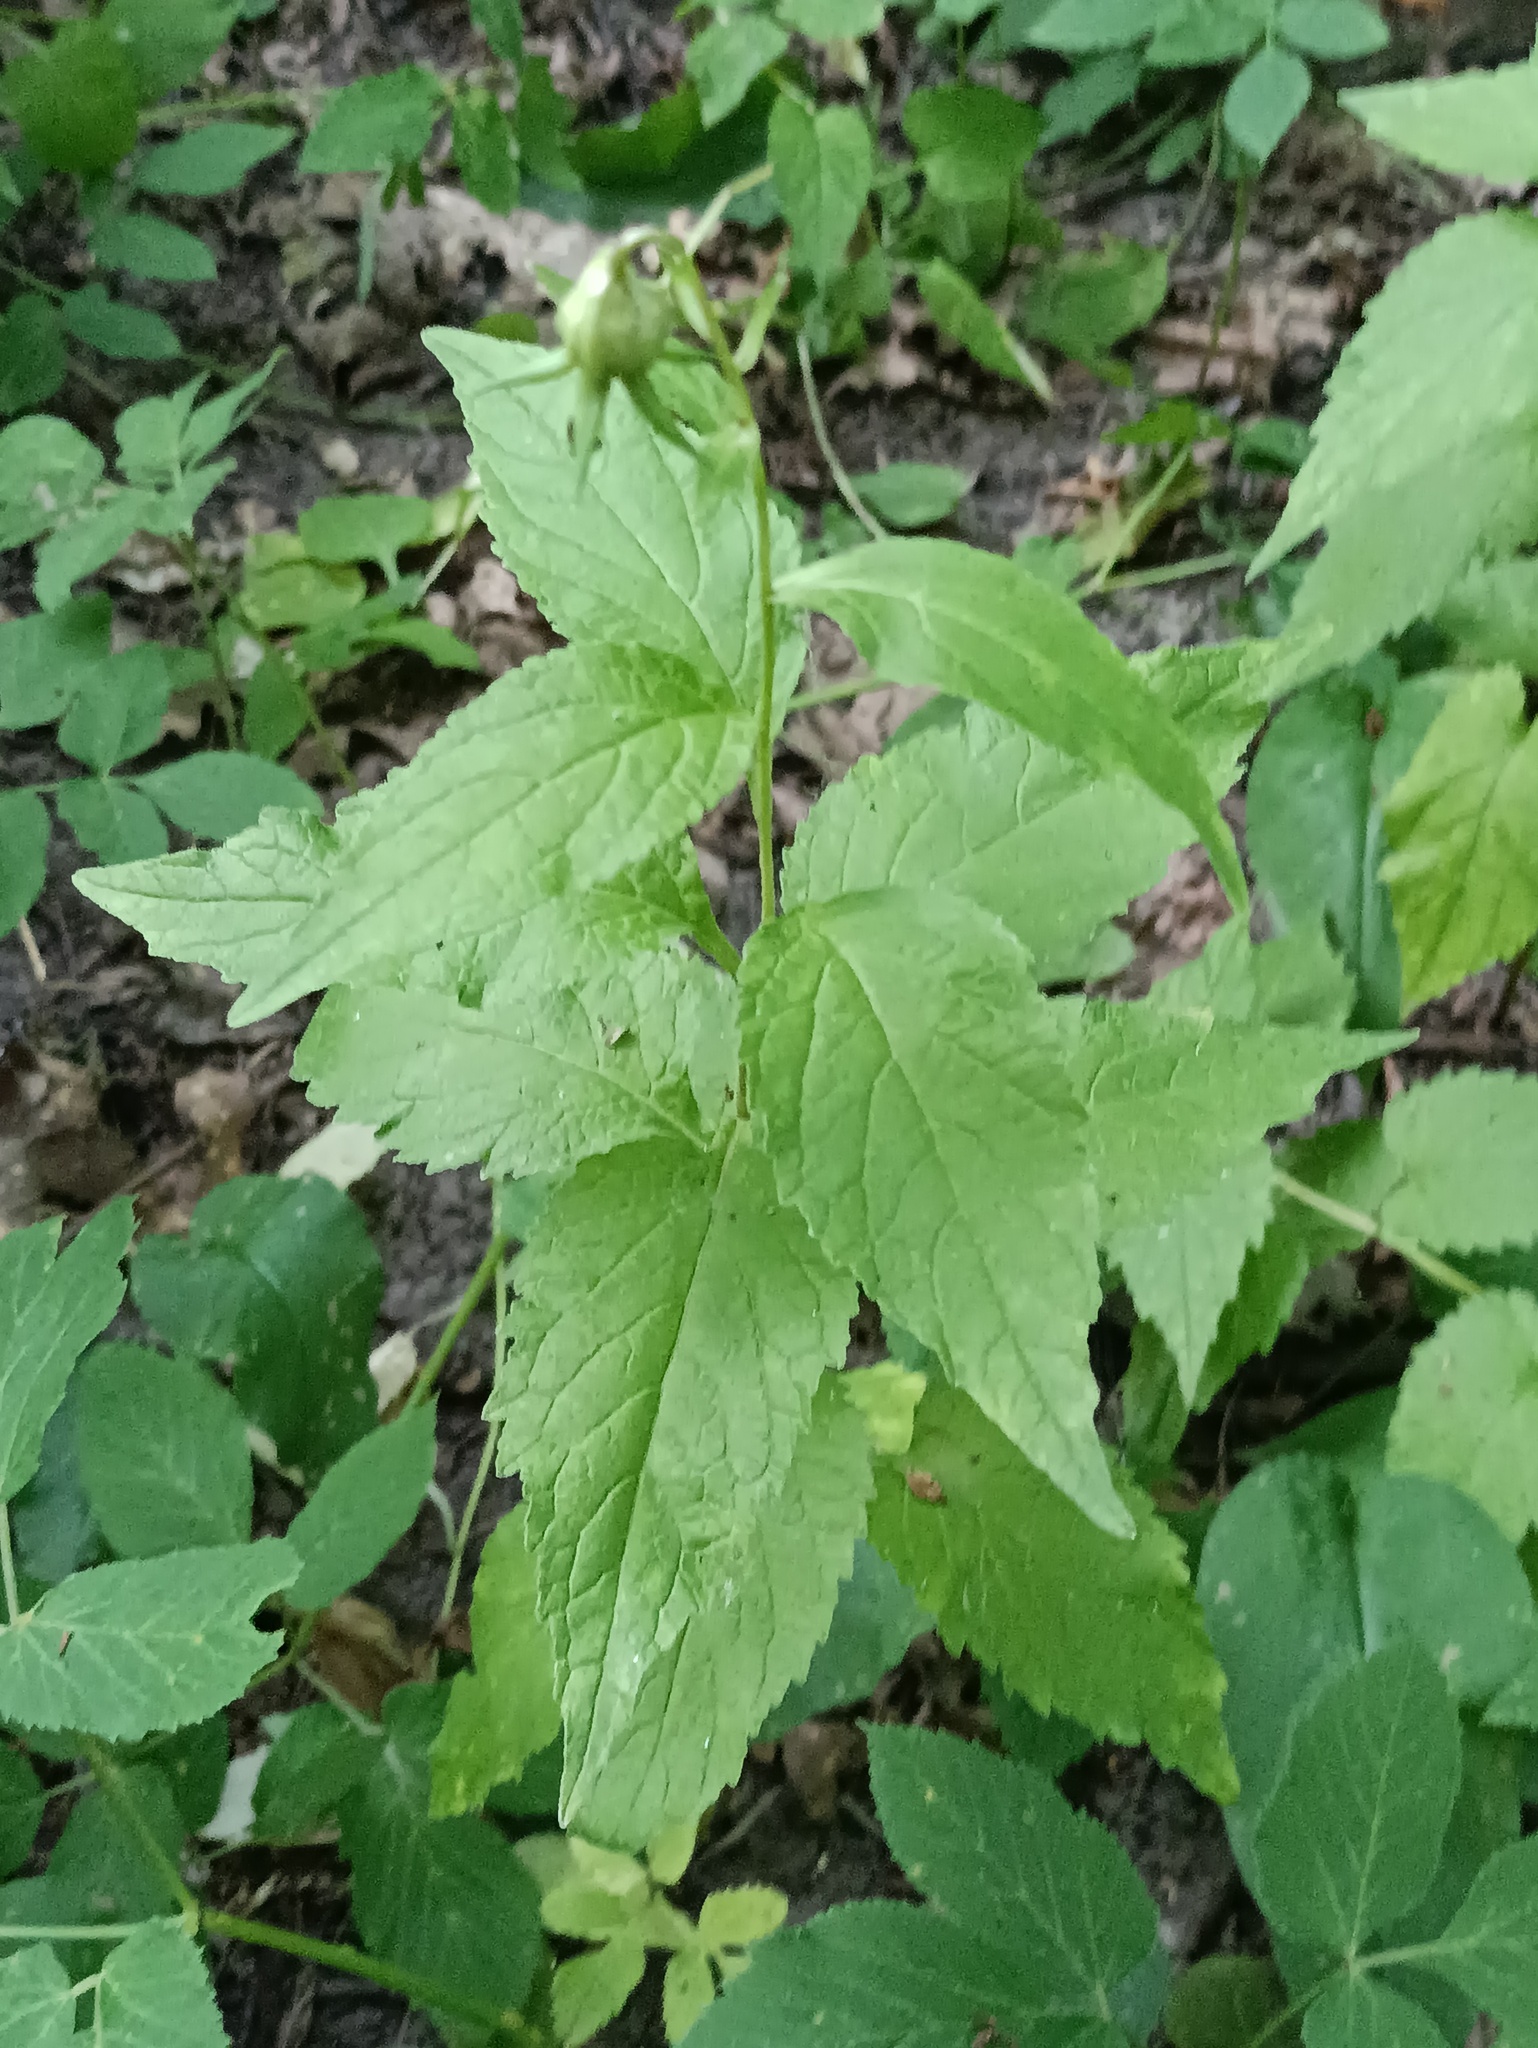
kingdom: Plantae
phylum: Tracheophyta
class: Magnoliopsida
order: Asterales
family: Campanulaceae
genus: Campanula
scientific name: Campanula latifolia
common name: Giant bellflower
